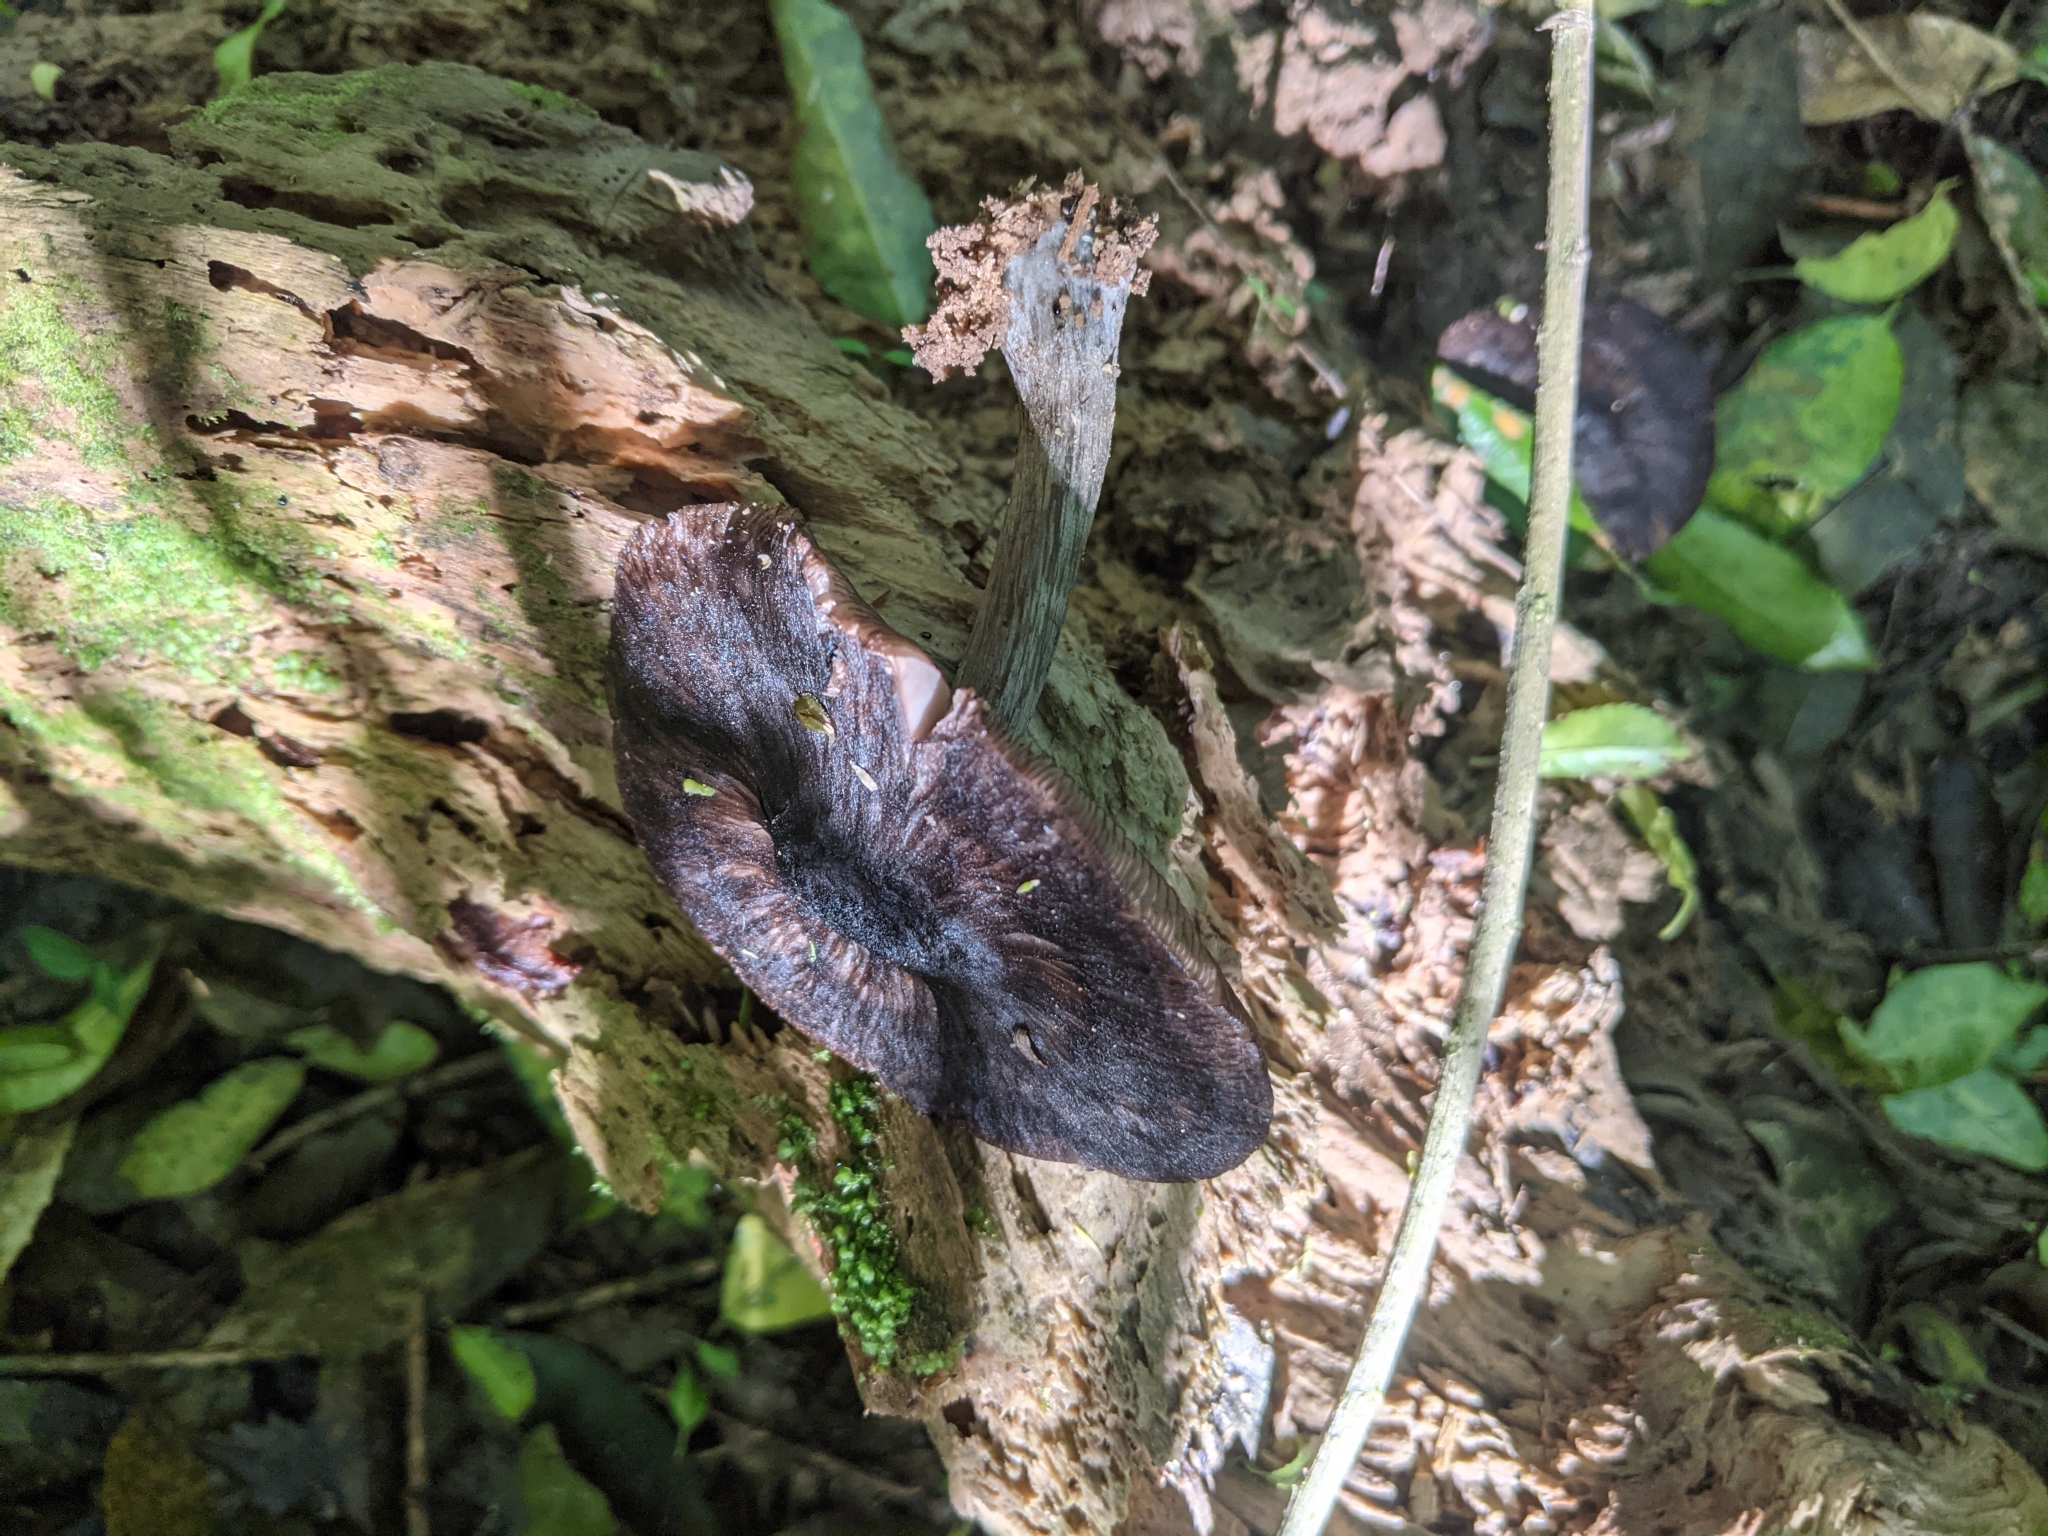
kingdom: Fungi
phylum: Basidiomycota
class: Agaricomycetes
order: Agaricales
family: Pluteaceae
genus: Pluteus
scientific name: Pluteus velutinornatus
